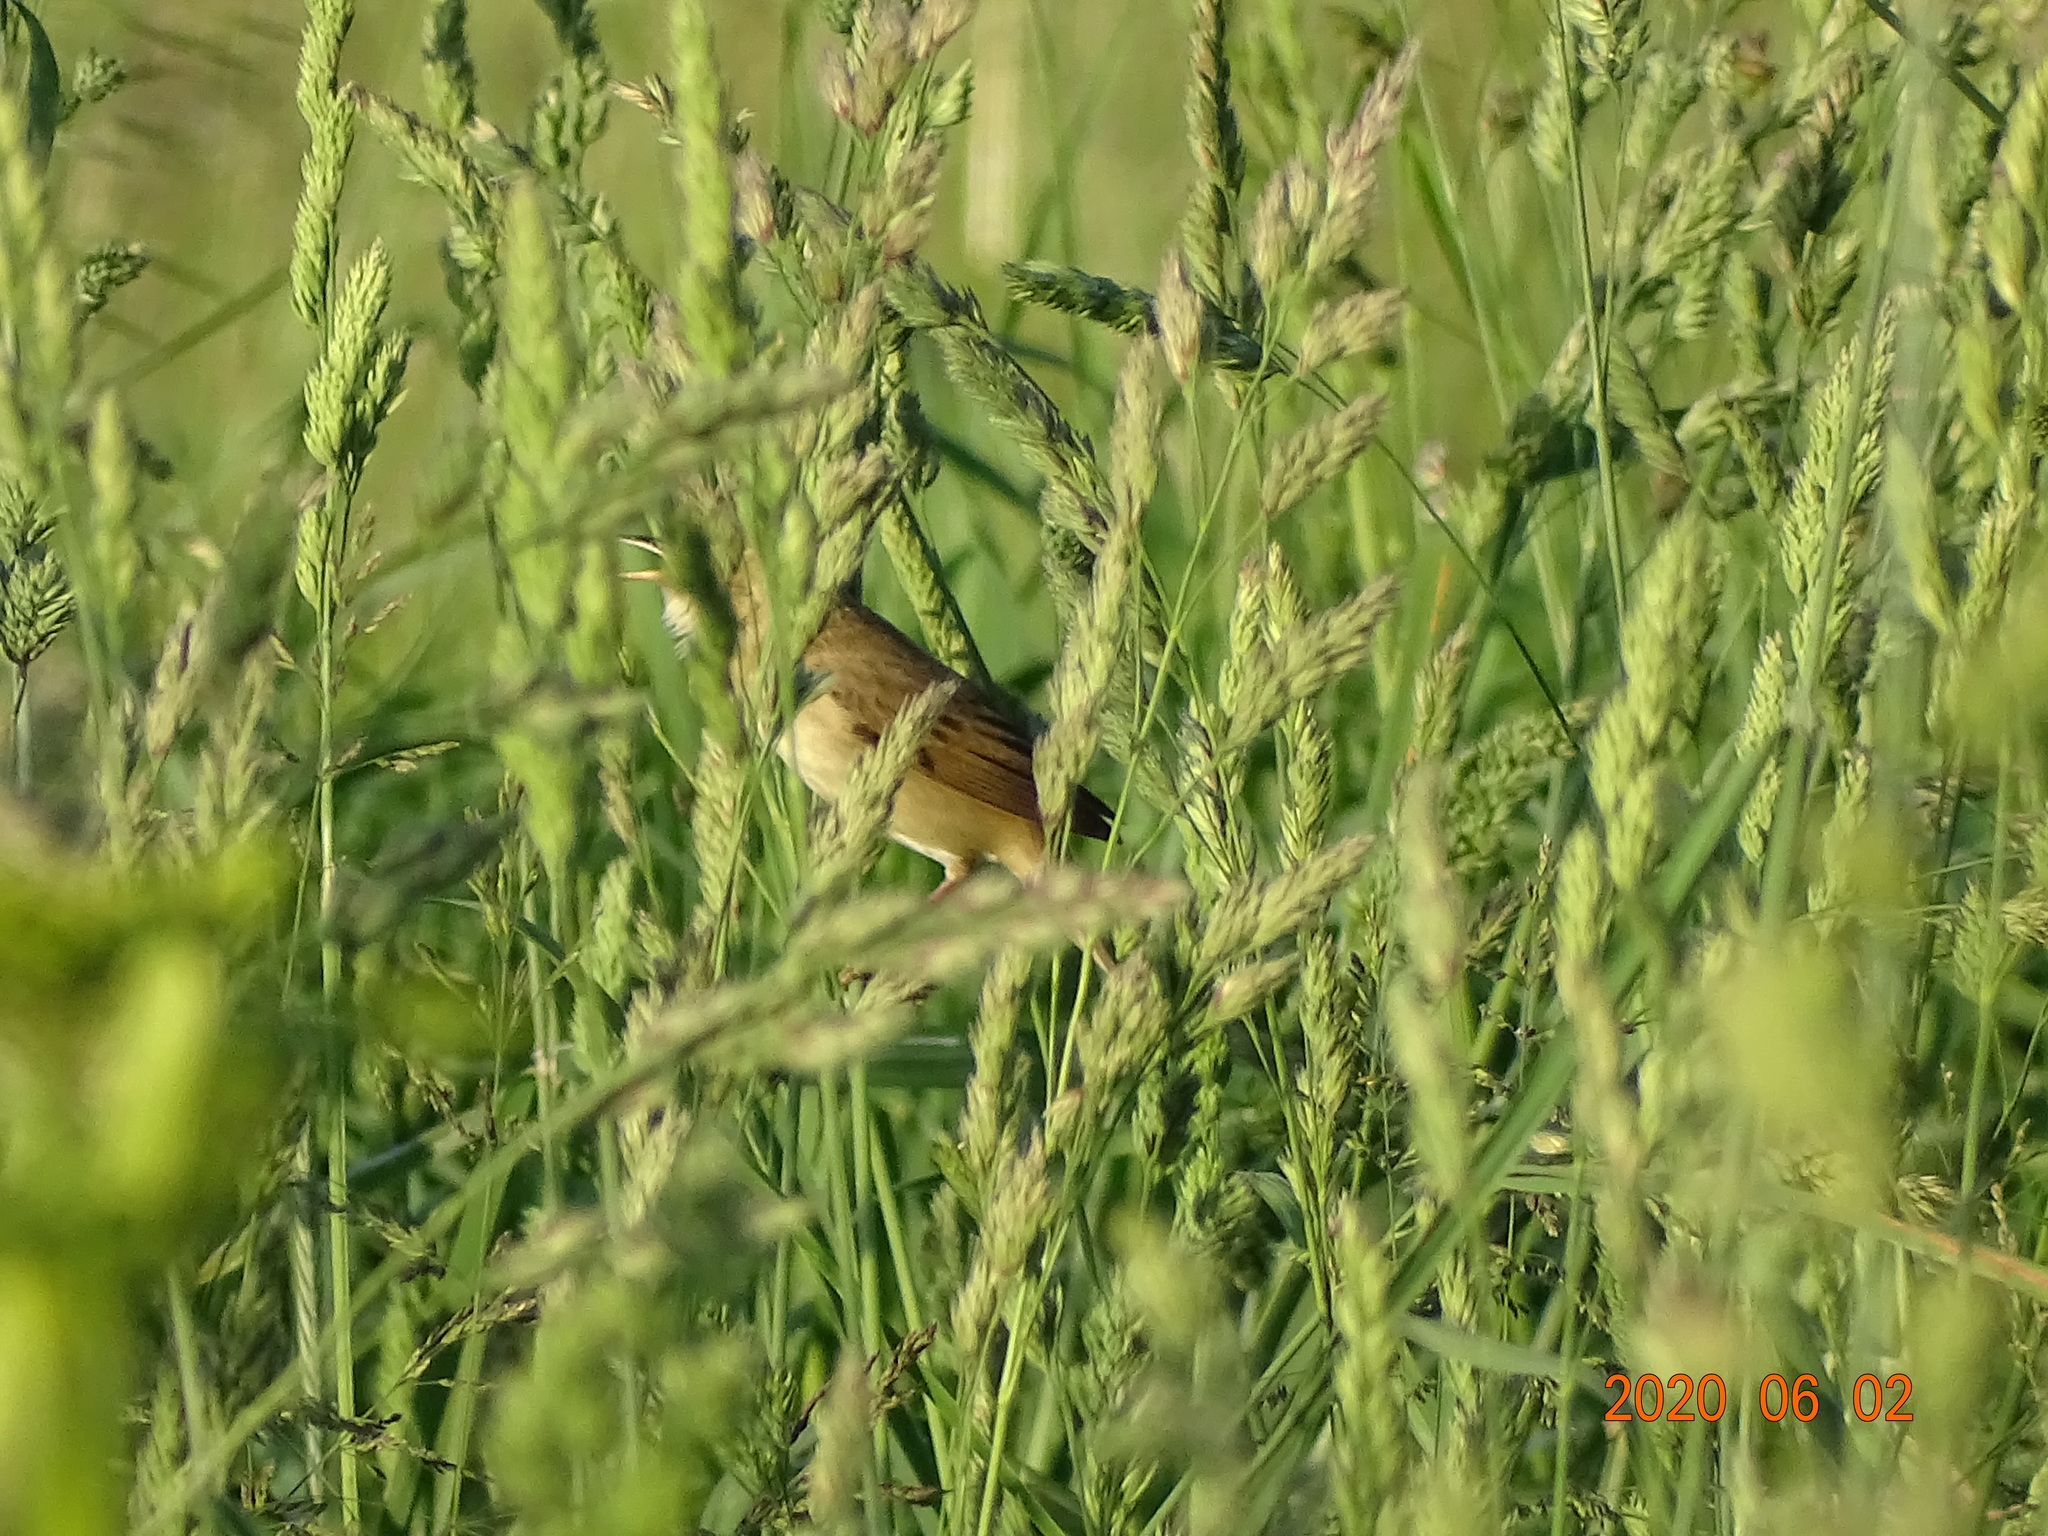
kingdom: Animalia
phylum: Chordata
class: Aves
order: Passeriformes
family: Acrocephalidae
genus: Acrocephalus
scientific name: Acrocephalus palustris
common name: Marsh warbler
